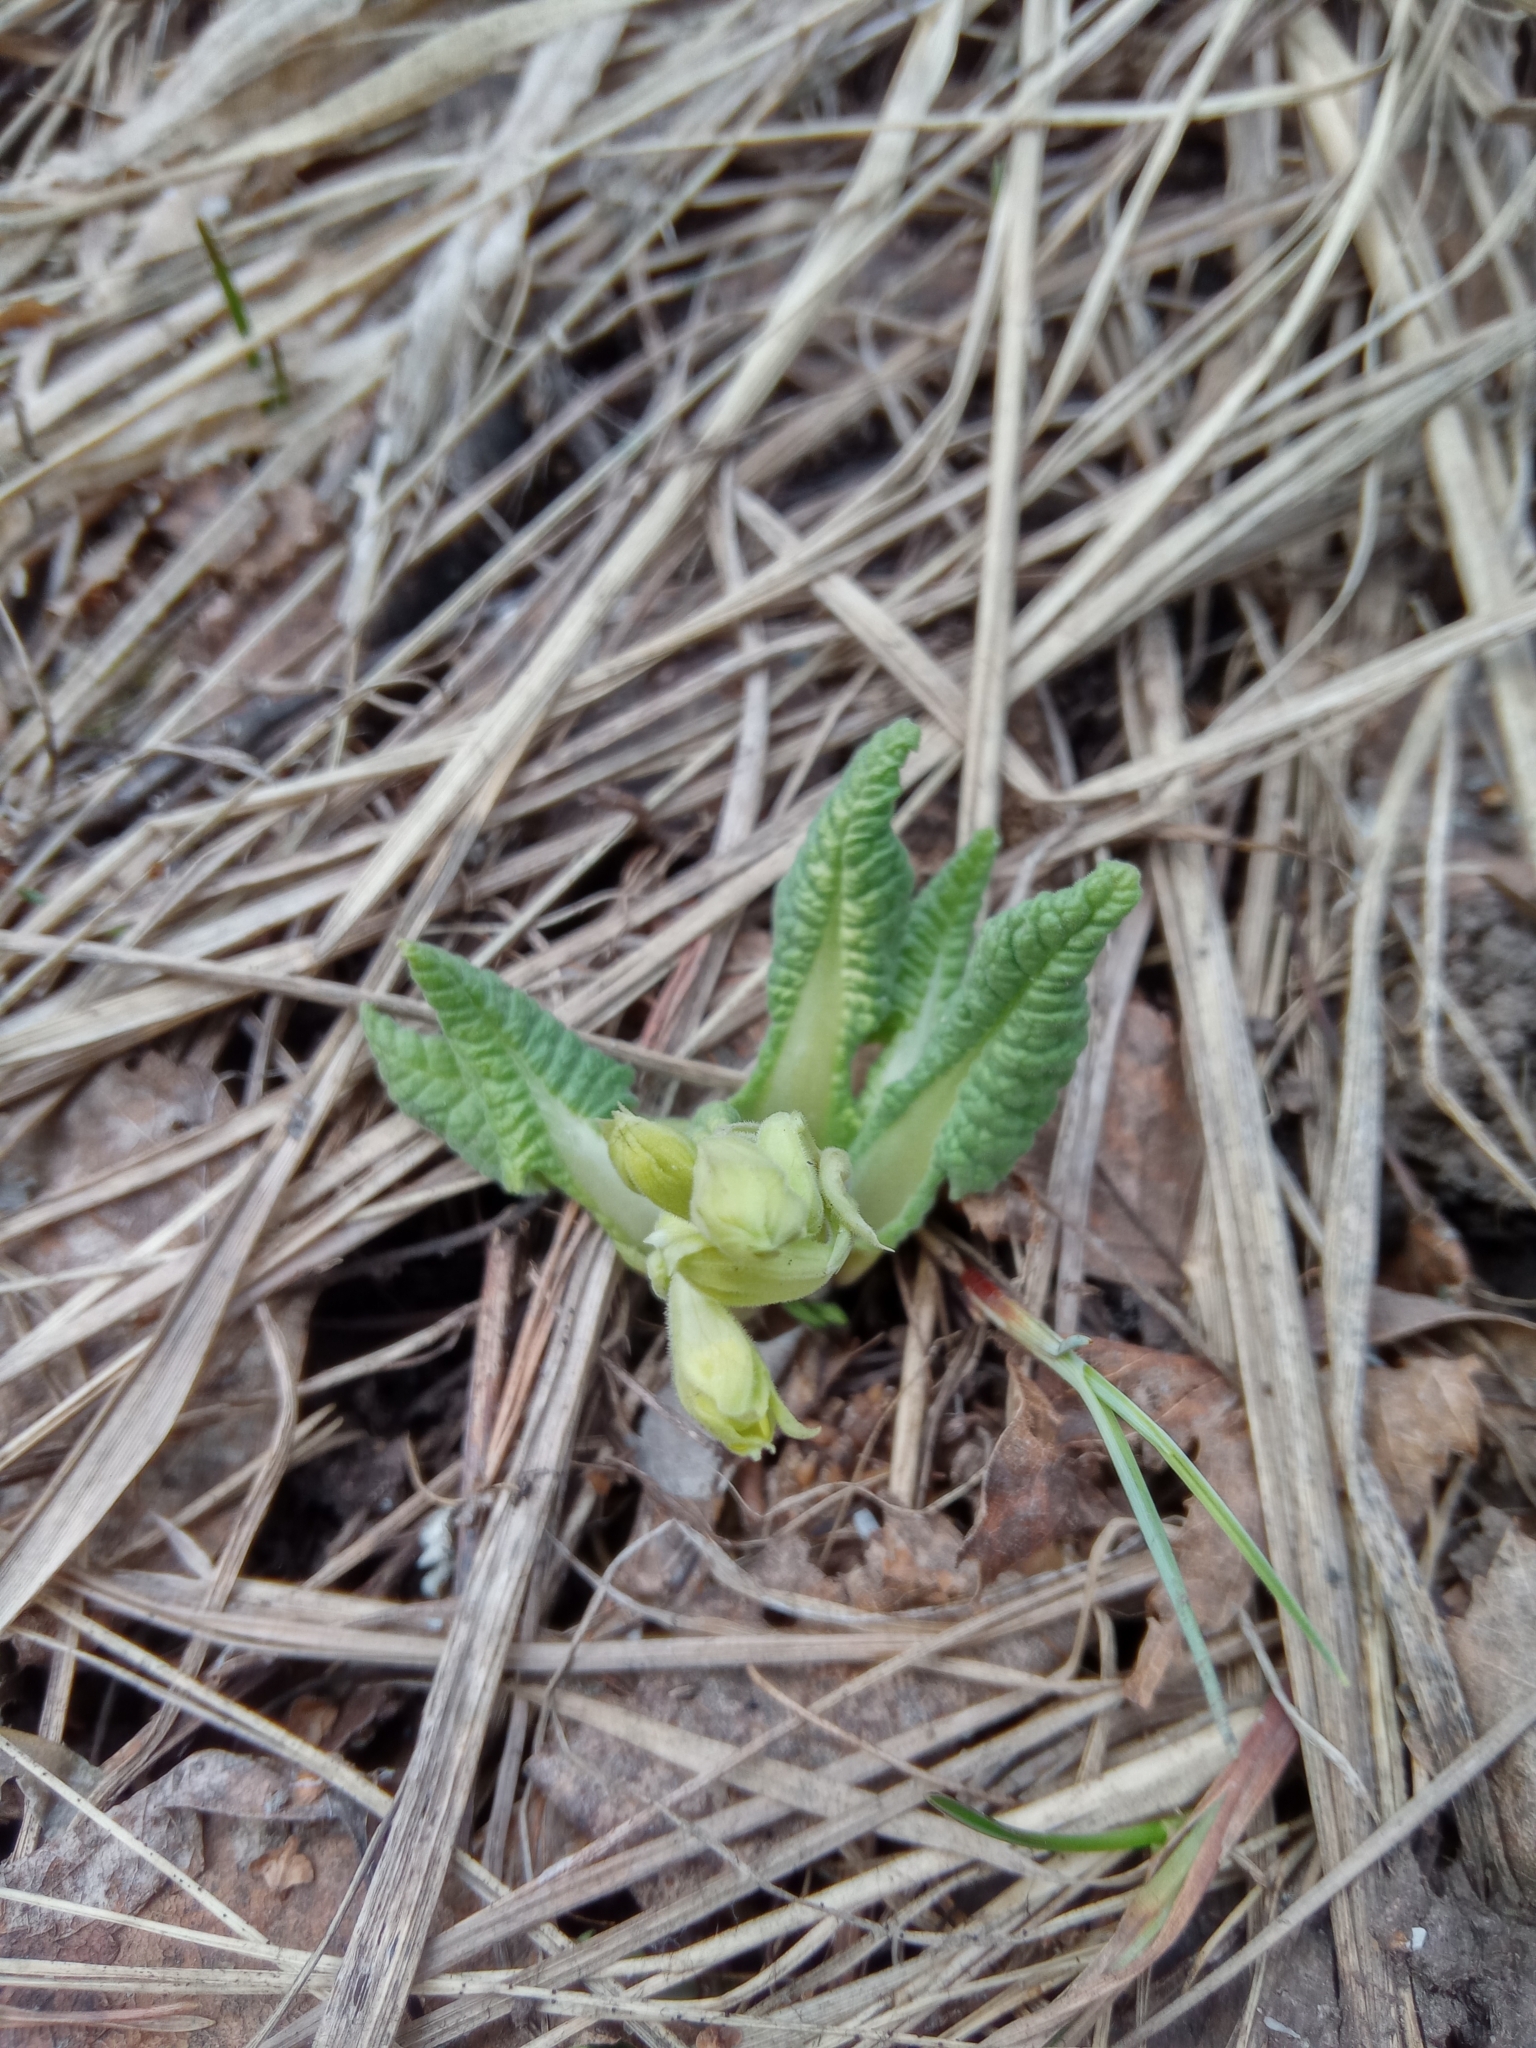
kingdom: Plantae
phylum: Tracheophyta
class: Magnoliopsida
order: Ericales
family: Primulaceae
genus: Primula
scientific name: Primula veris
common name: Cowslip
